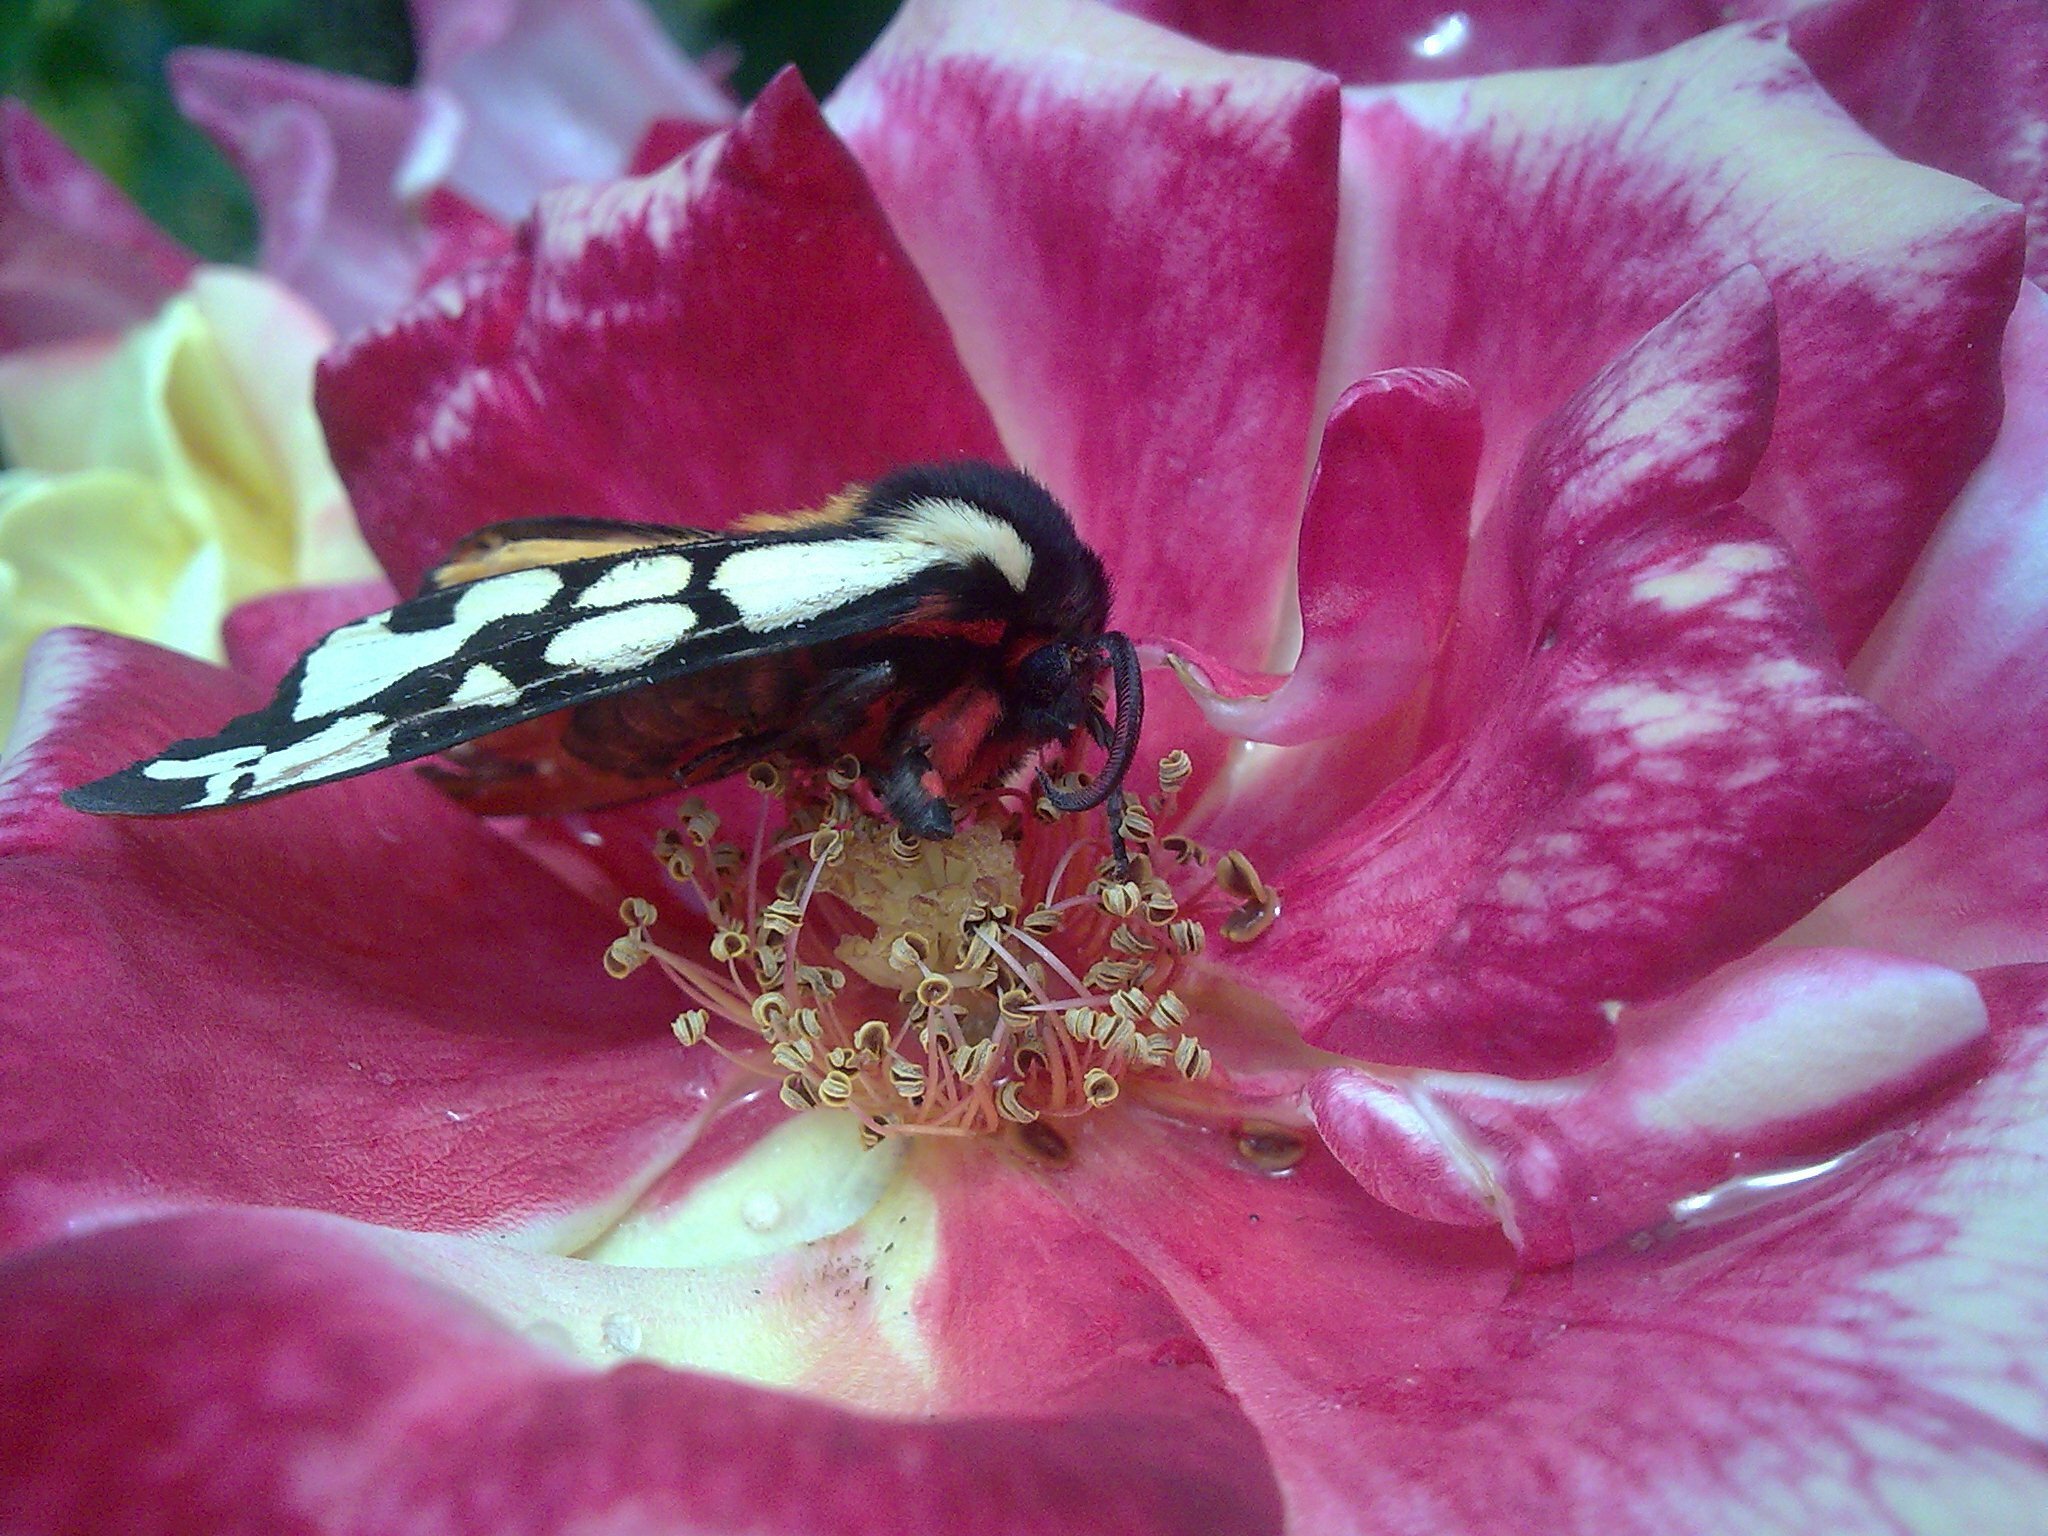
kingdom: Animalia
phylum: Arthropoda
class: Insecta
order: Lepidoptera
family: Erebidae
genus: Epicallia
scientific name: Epicallia villica
